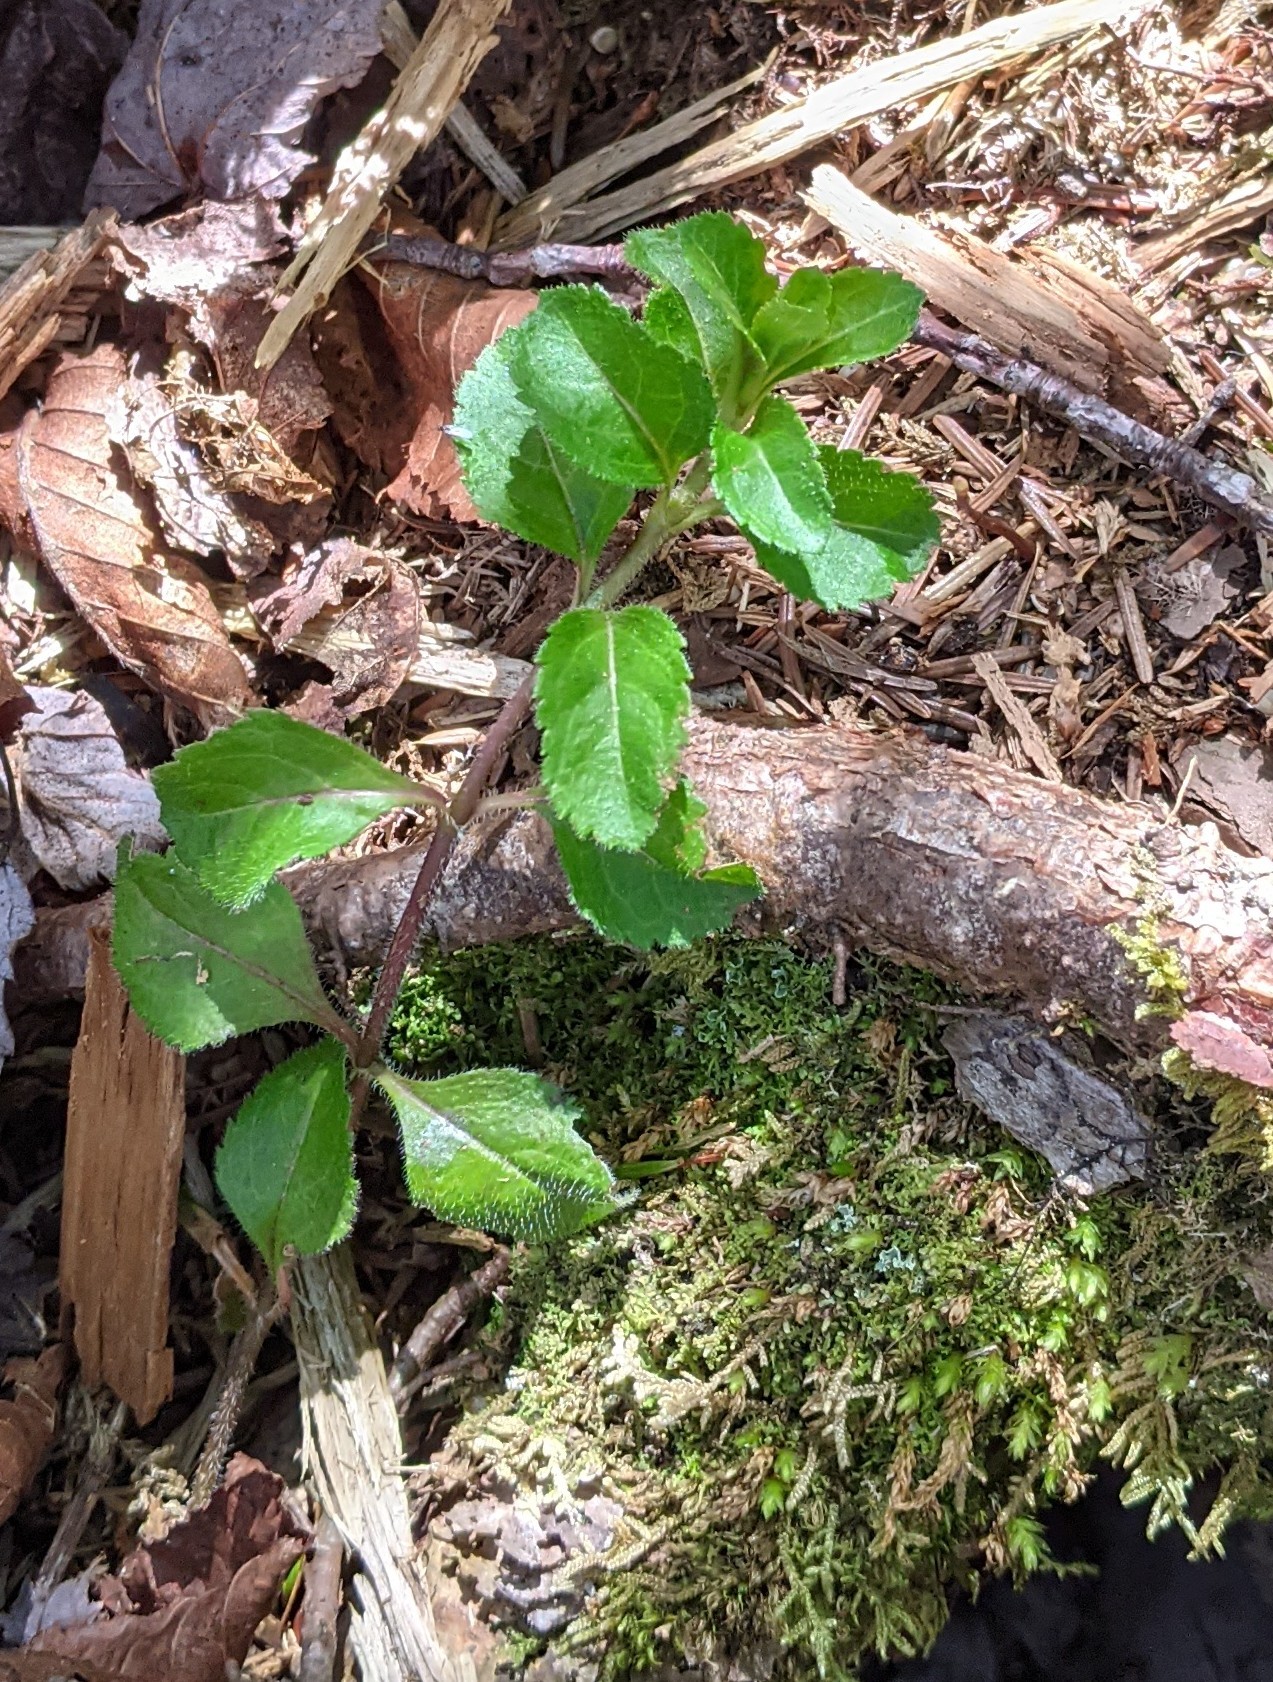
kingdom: Plantae
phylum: Tracheophyta
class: Magnoliopsida
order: Lamiales
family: Plantaginaceae
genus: Veronica
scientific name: Veronica officinalis
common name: Common speedwell
